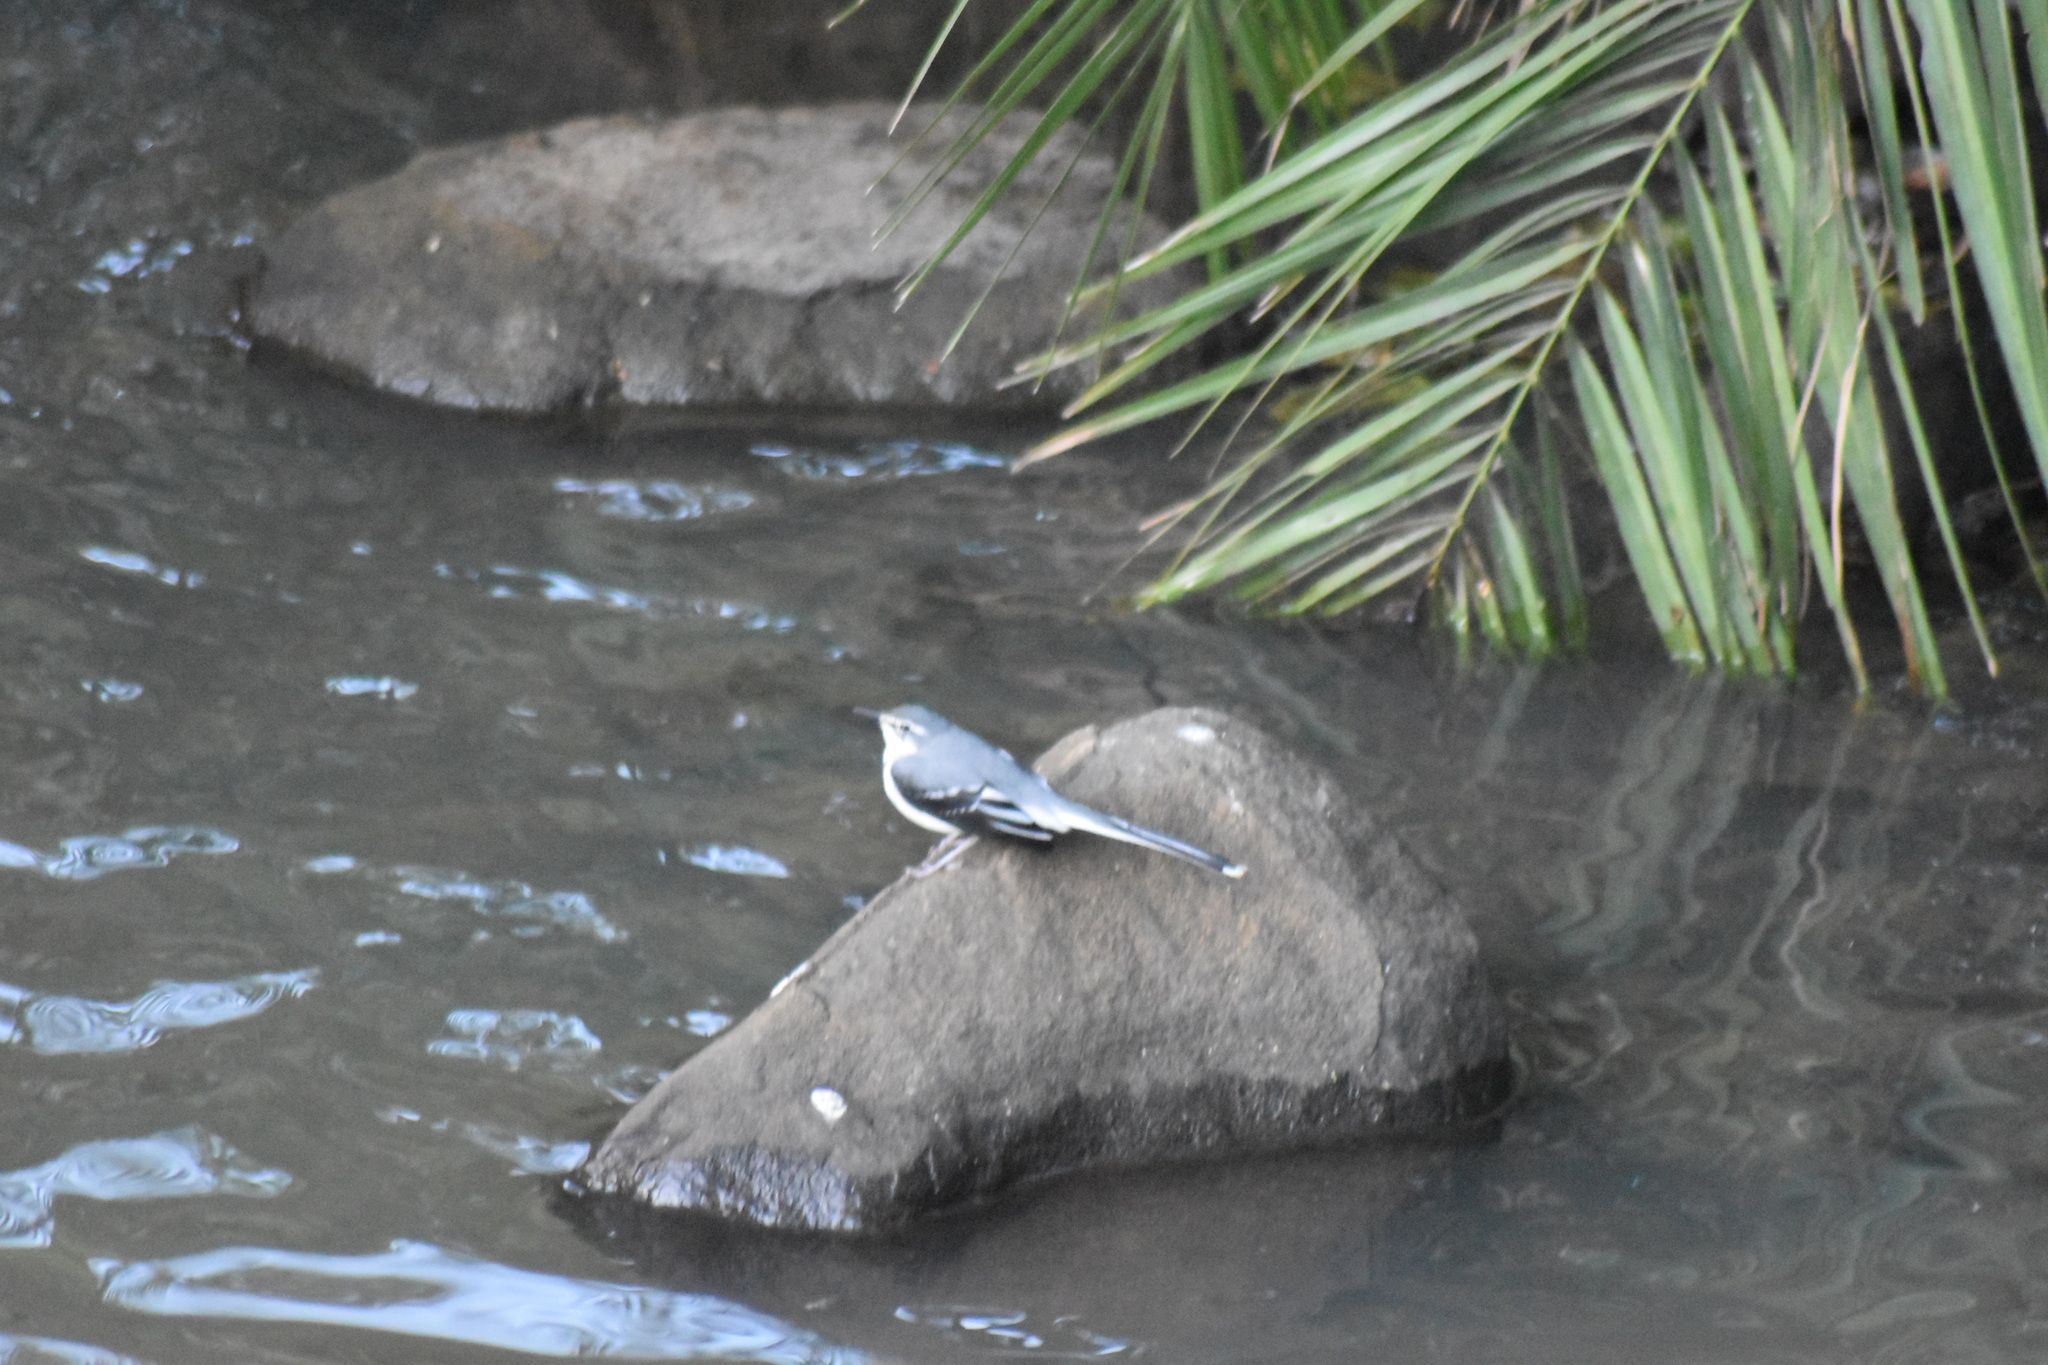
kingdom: Animalia
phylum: Chordata
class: Aves
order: Passeriformes
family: Motacillidae
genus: Motacilla
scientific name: Motacilla clara
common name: Mountain wagtail
